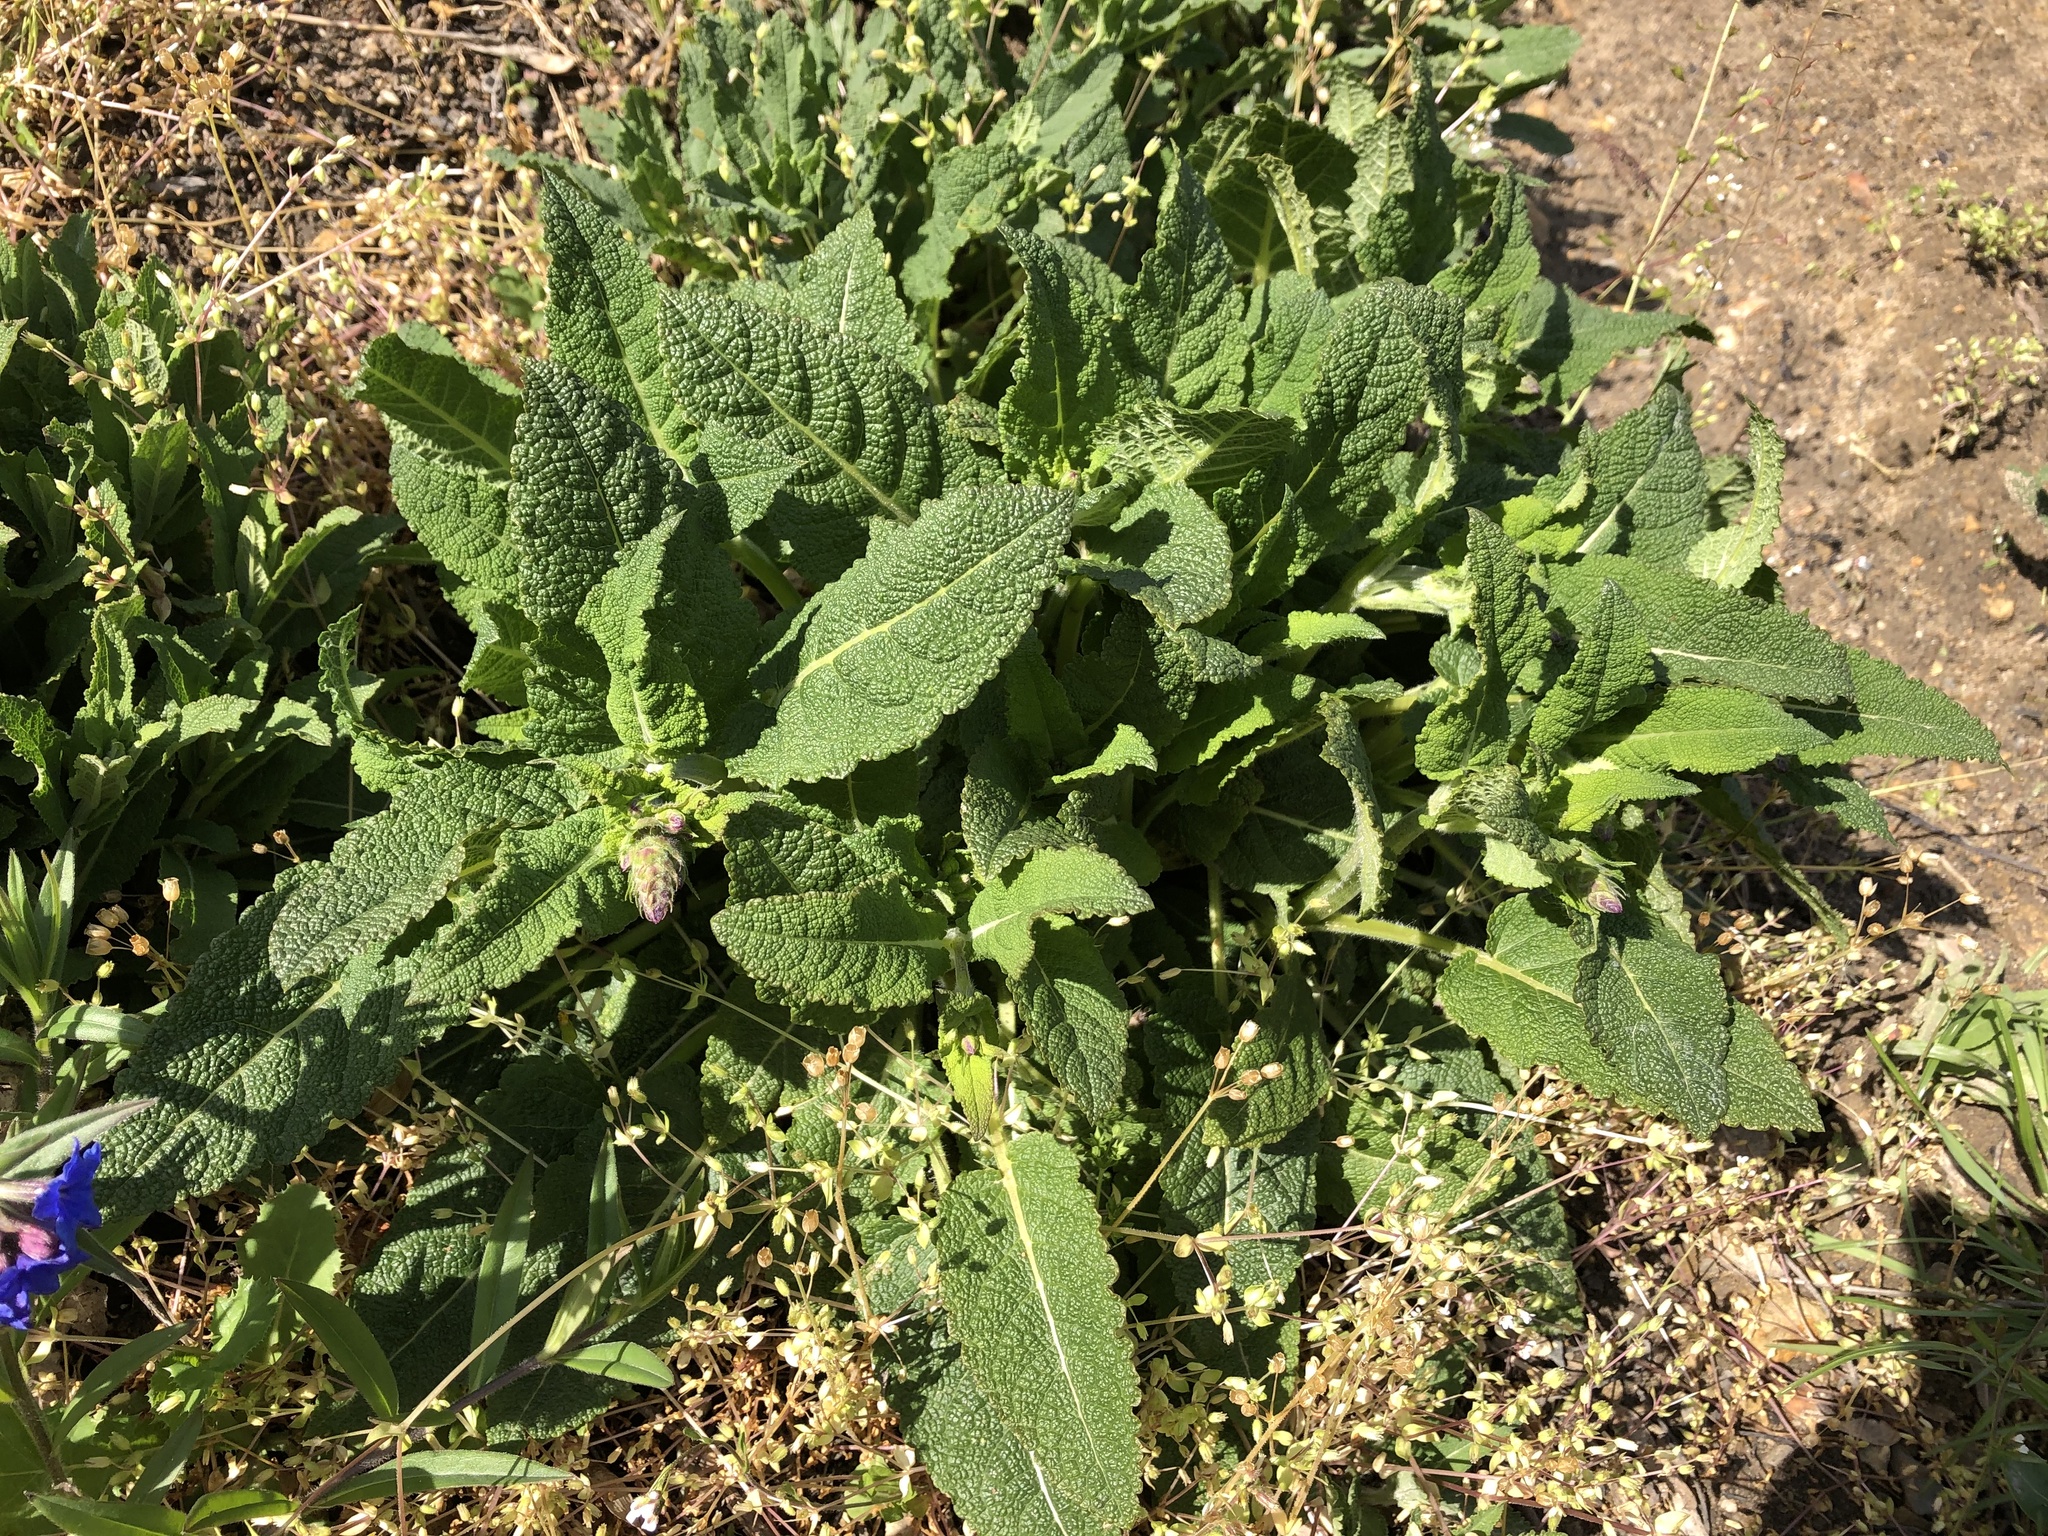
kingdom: Plantae
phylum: Tracheophyta
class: Magnoliopsida
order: Lamiales
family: Lamiaceae
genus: Salvia
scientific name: Salvia pratensis
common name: Meadow sage
